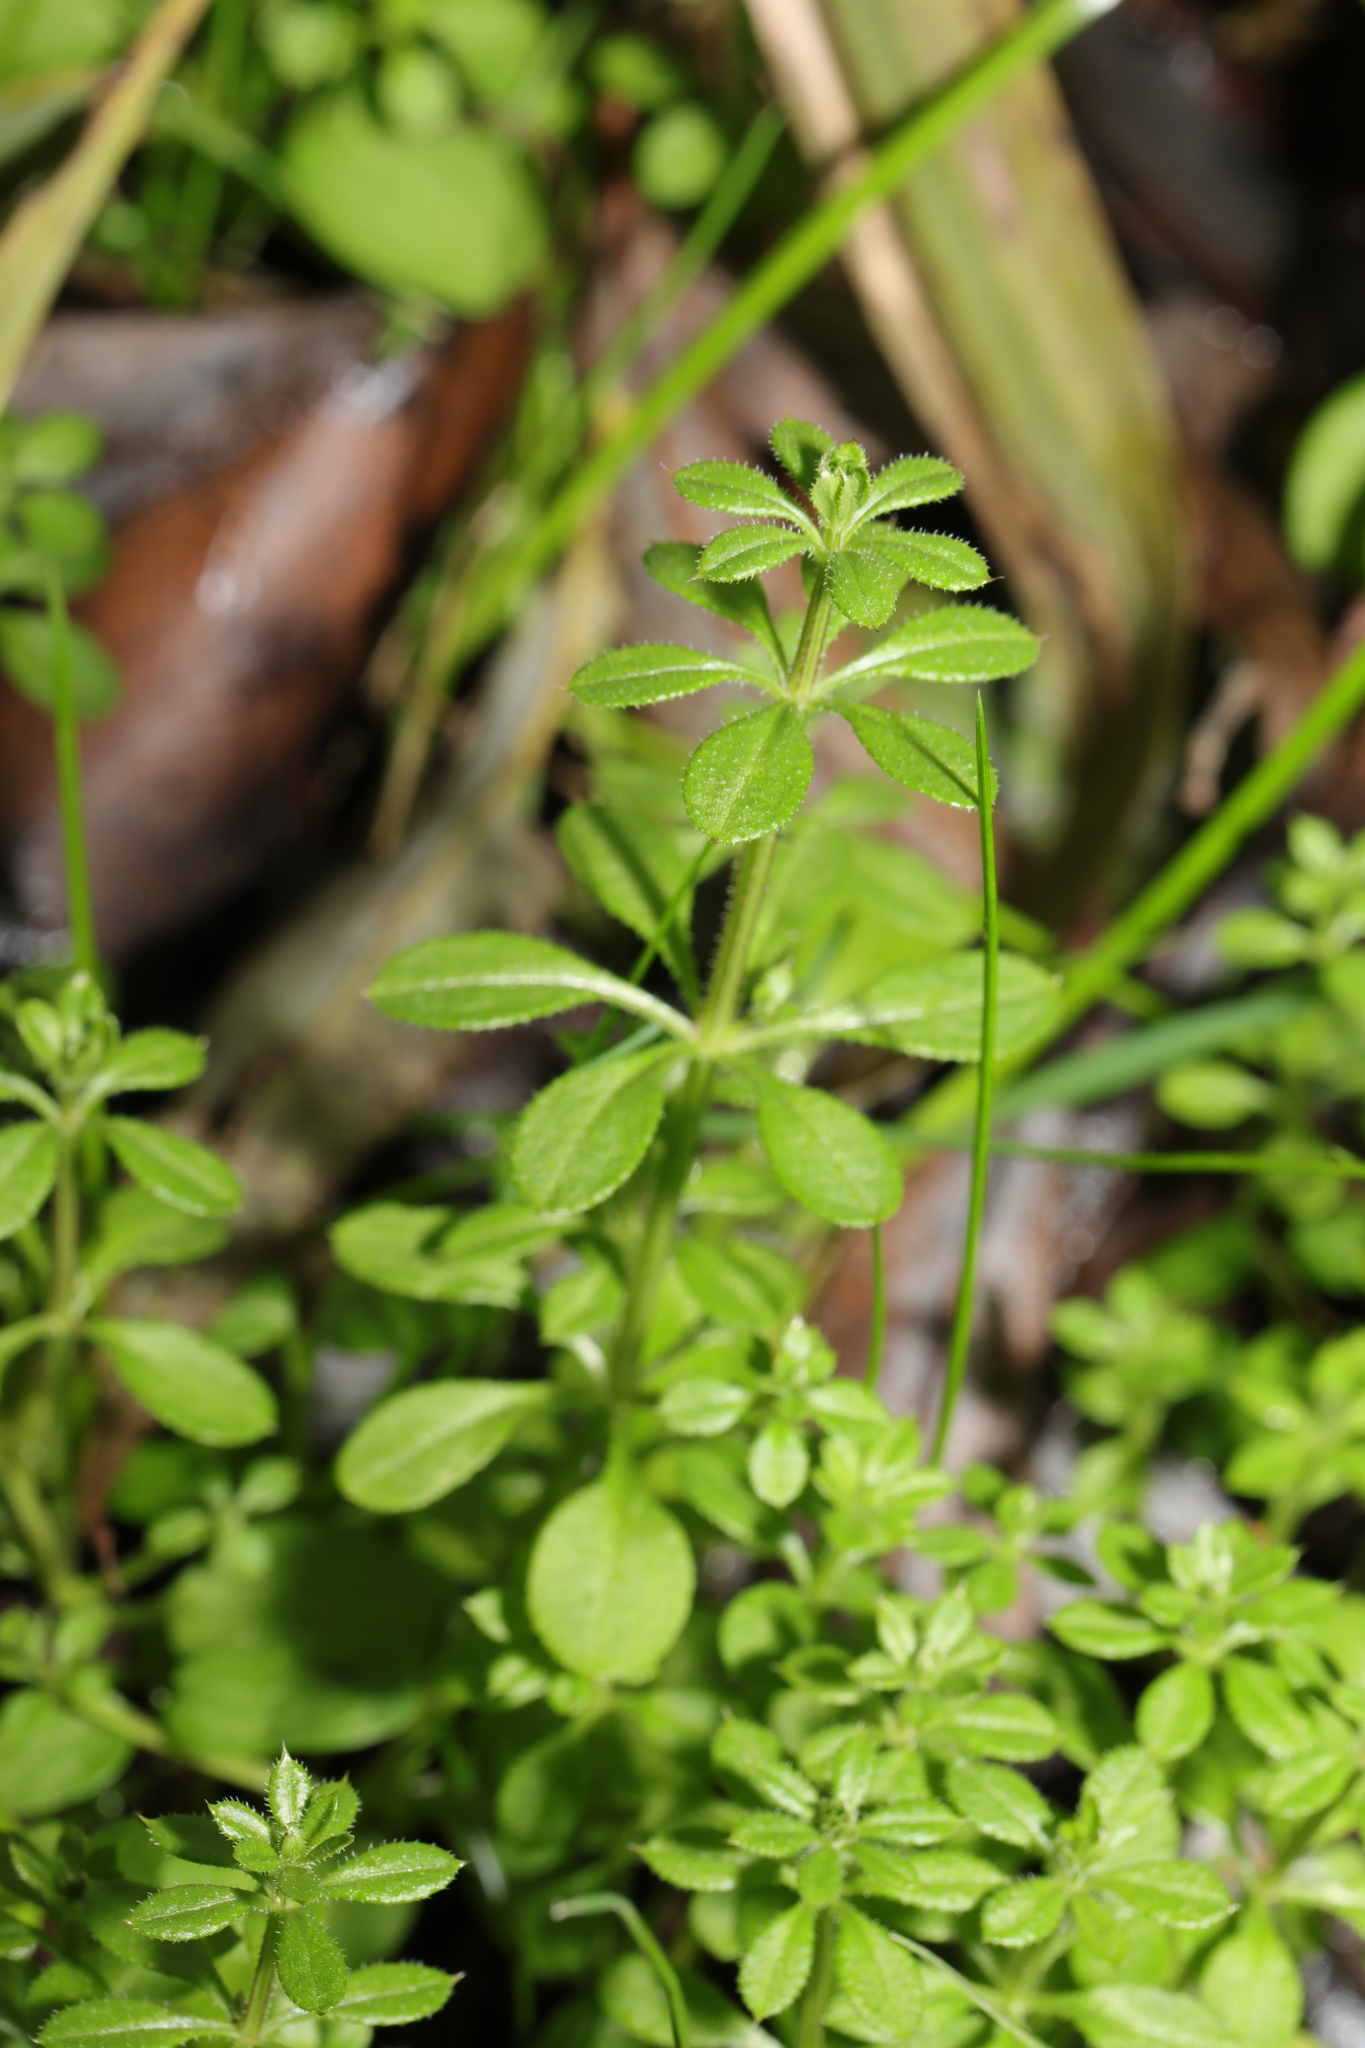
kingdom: Plantae
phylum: Tracheophyta
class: Magnoliopsida
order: Gentianales
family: Rubiaceae
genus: Galium
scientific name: Galium aparine
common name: Cleavers
